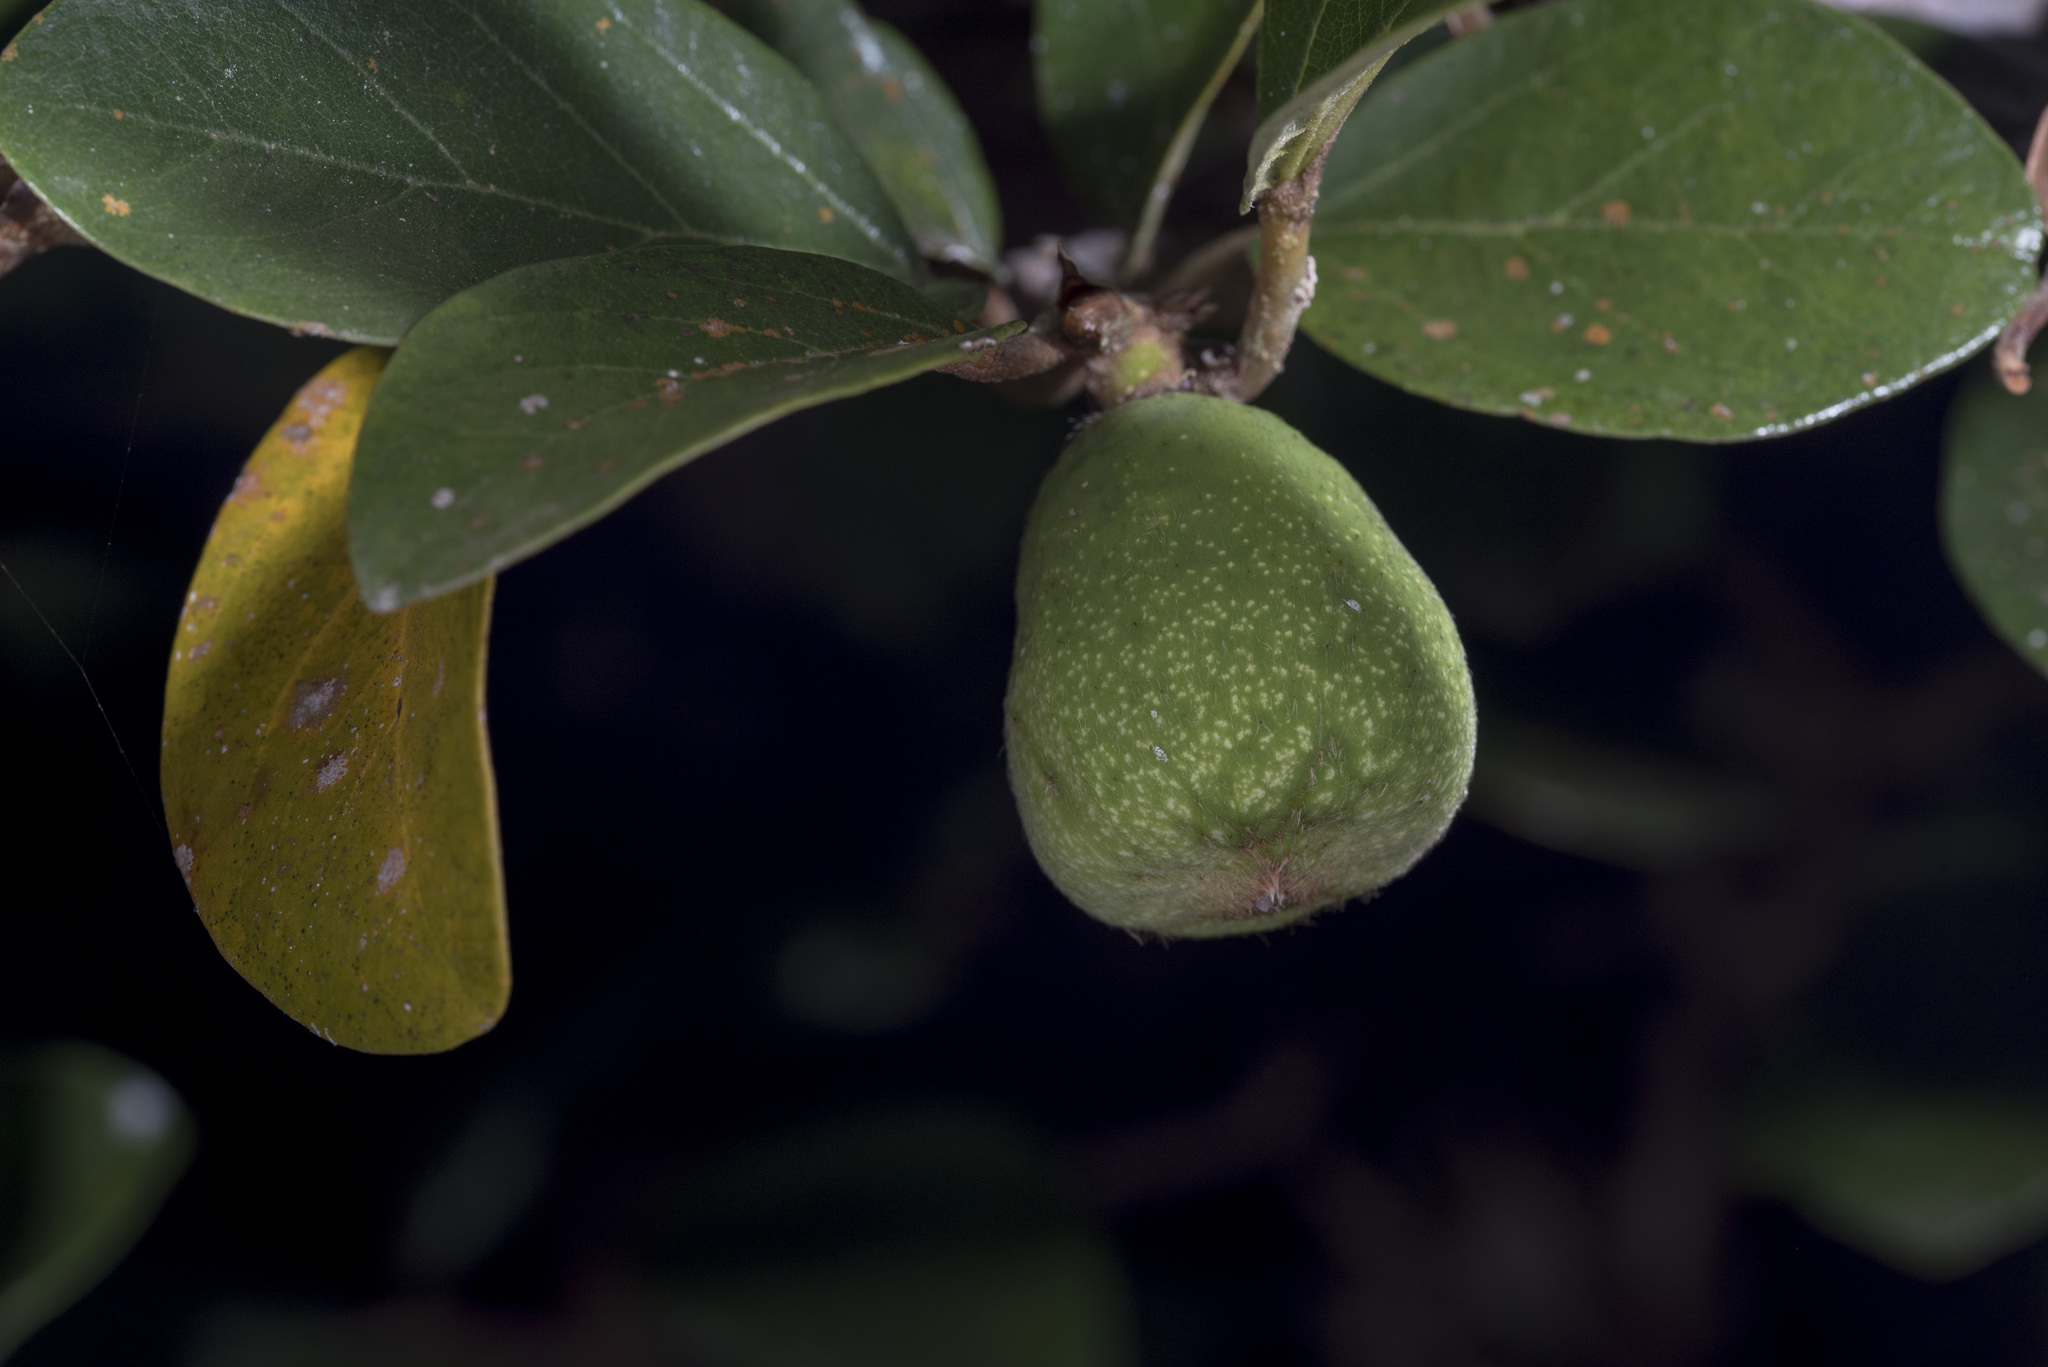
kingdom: Plantae
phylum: Tracheophyta
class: Magnoliopsida
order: Rosales
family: Moraceae
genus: Ficus
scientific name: Ficus pumila
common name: Climbingfig
